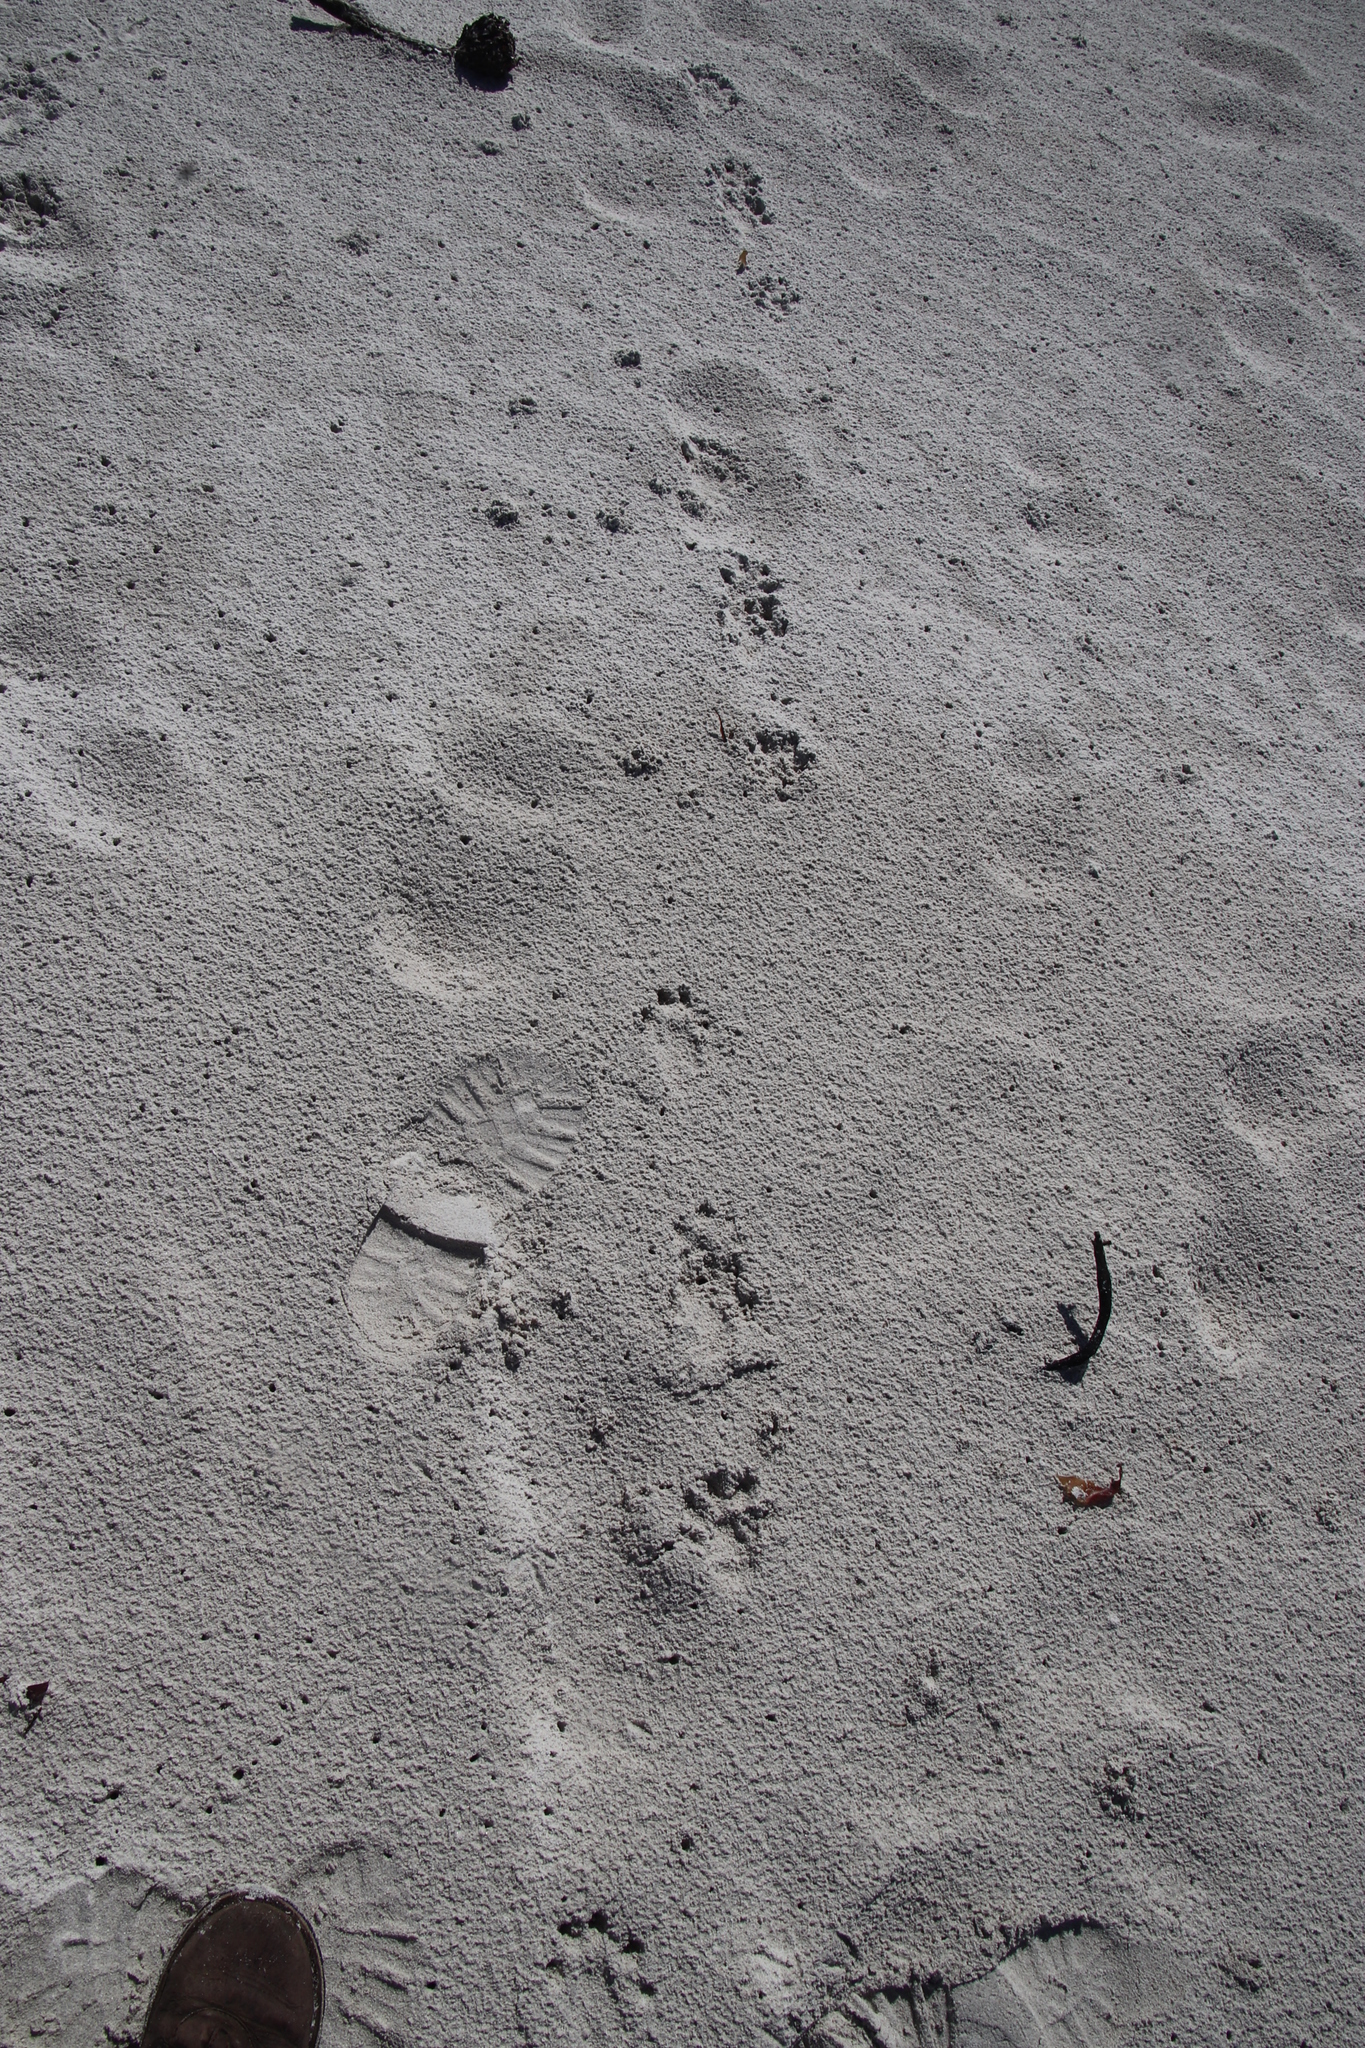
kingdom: Animalia
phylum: Chordata
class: Mammalia
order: Carnivora
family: Mustelidae
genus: Aonyx
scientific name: Aonyx capensis
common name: African clawless otter
